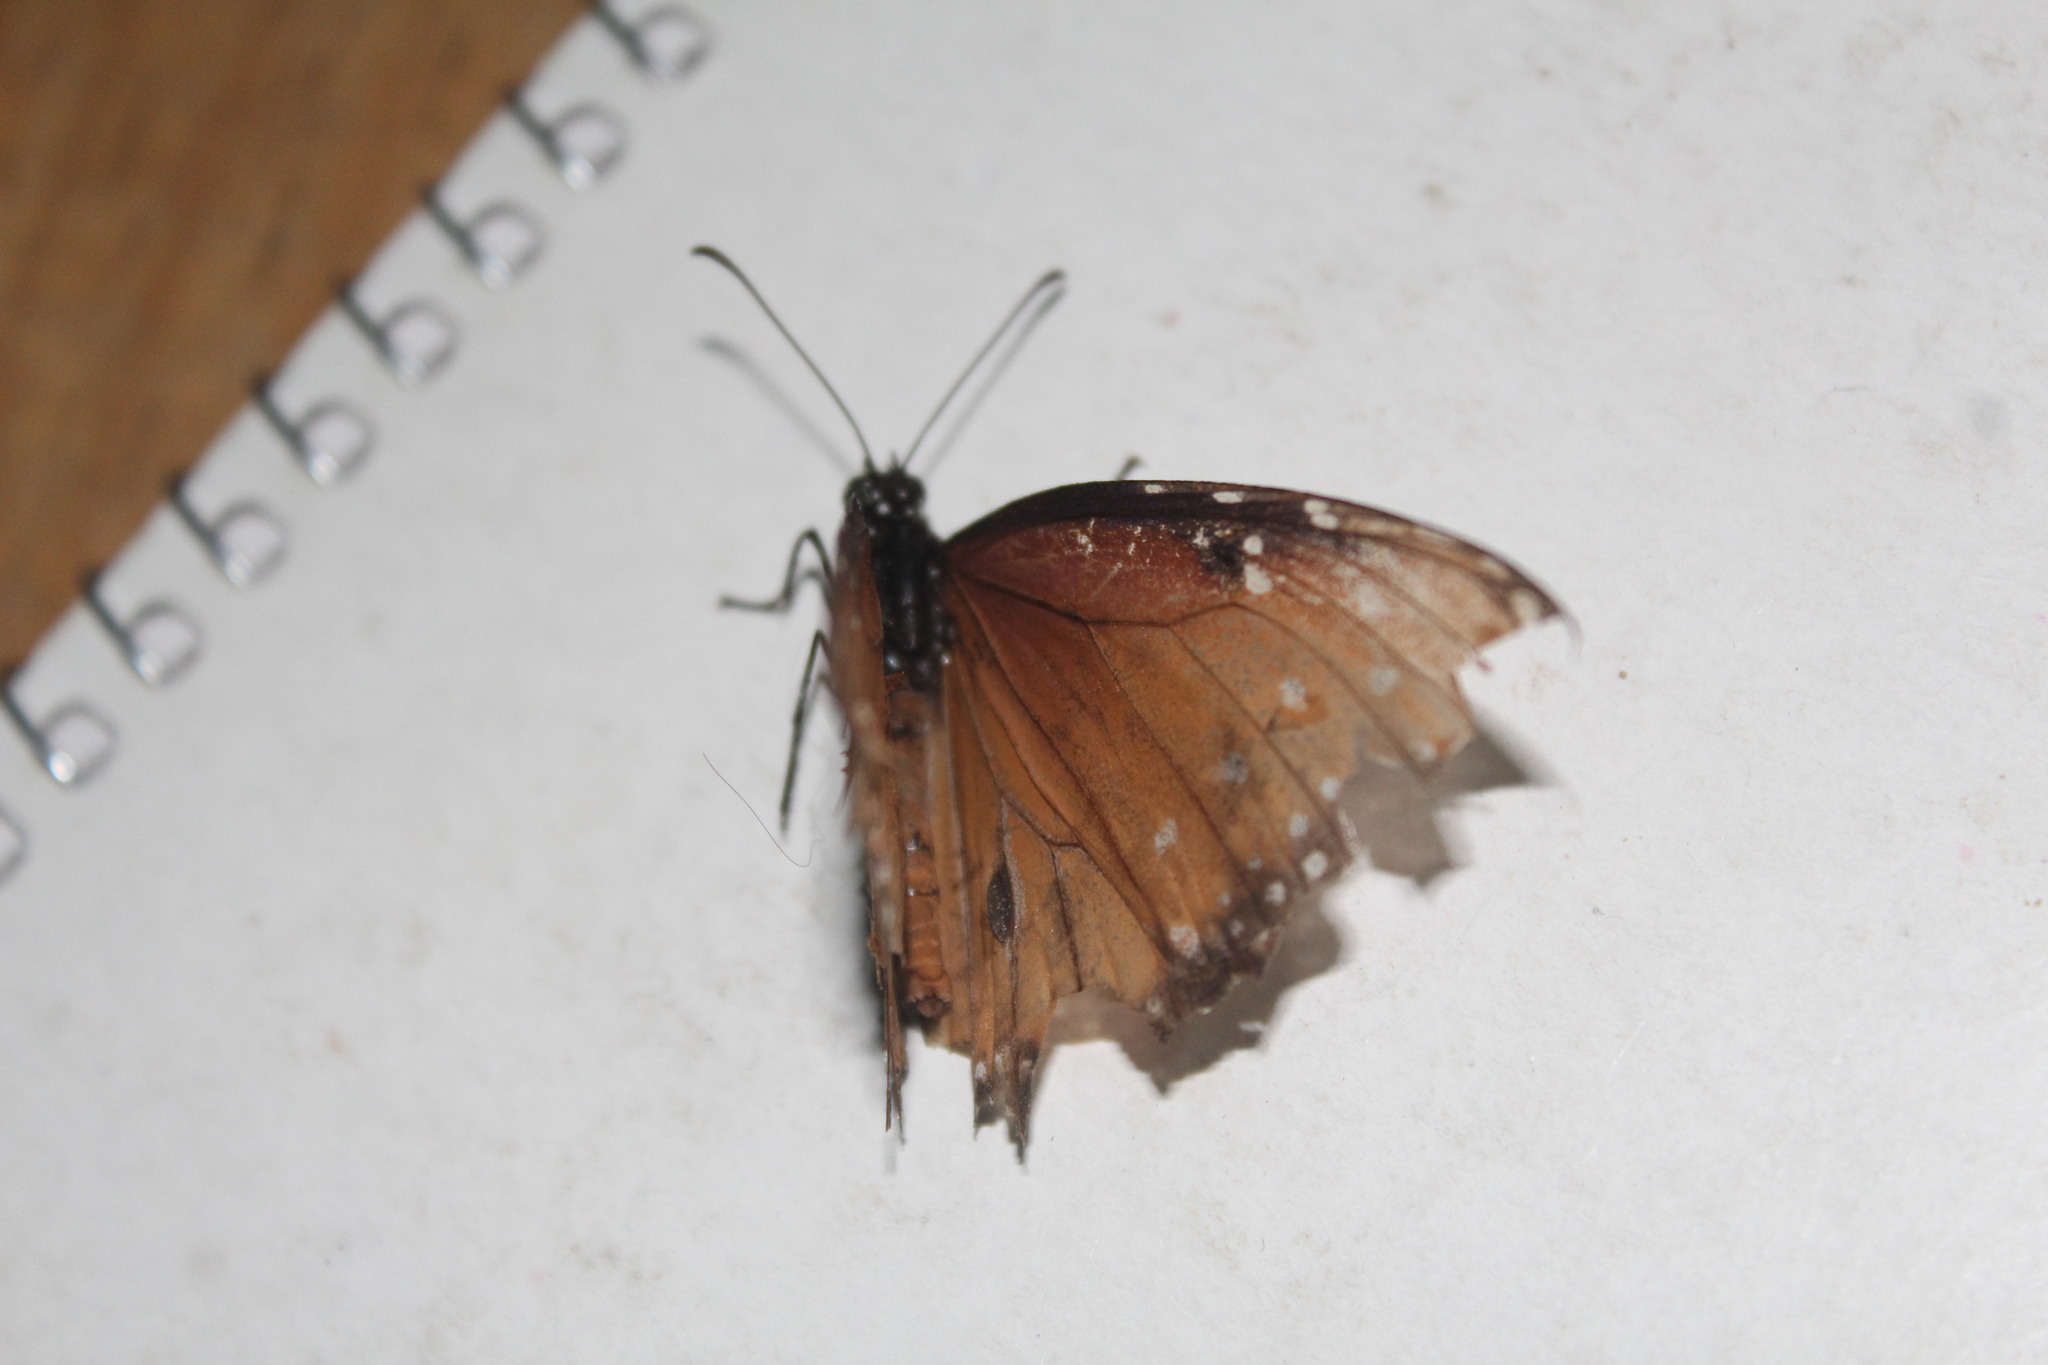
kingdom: Animalia
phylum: Arthropoda
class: Insecta
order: Lepidoptera
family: Nymphalidae
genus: Danaus
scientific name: Danaus gilippus
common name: Queen
